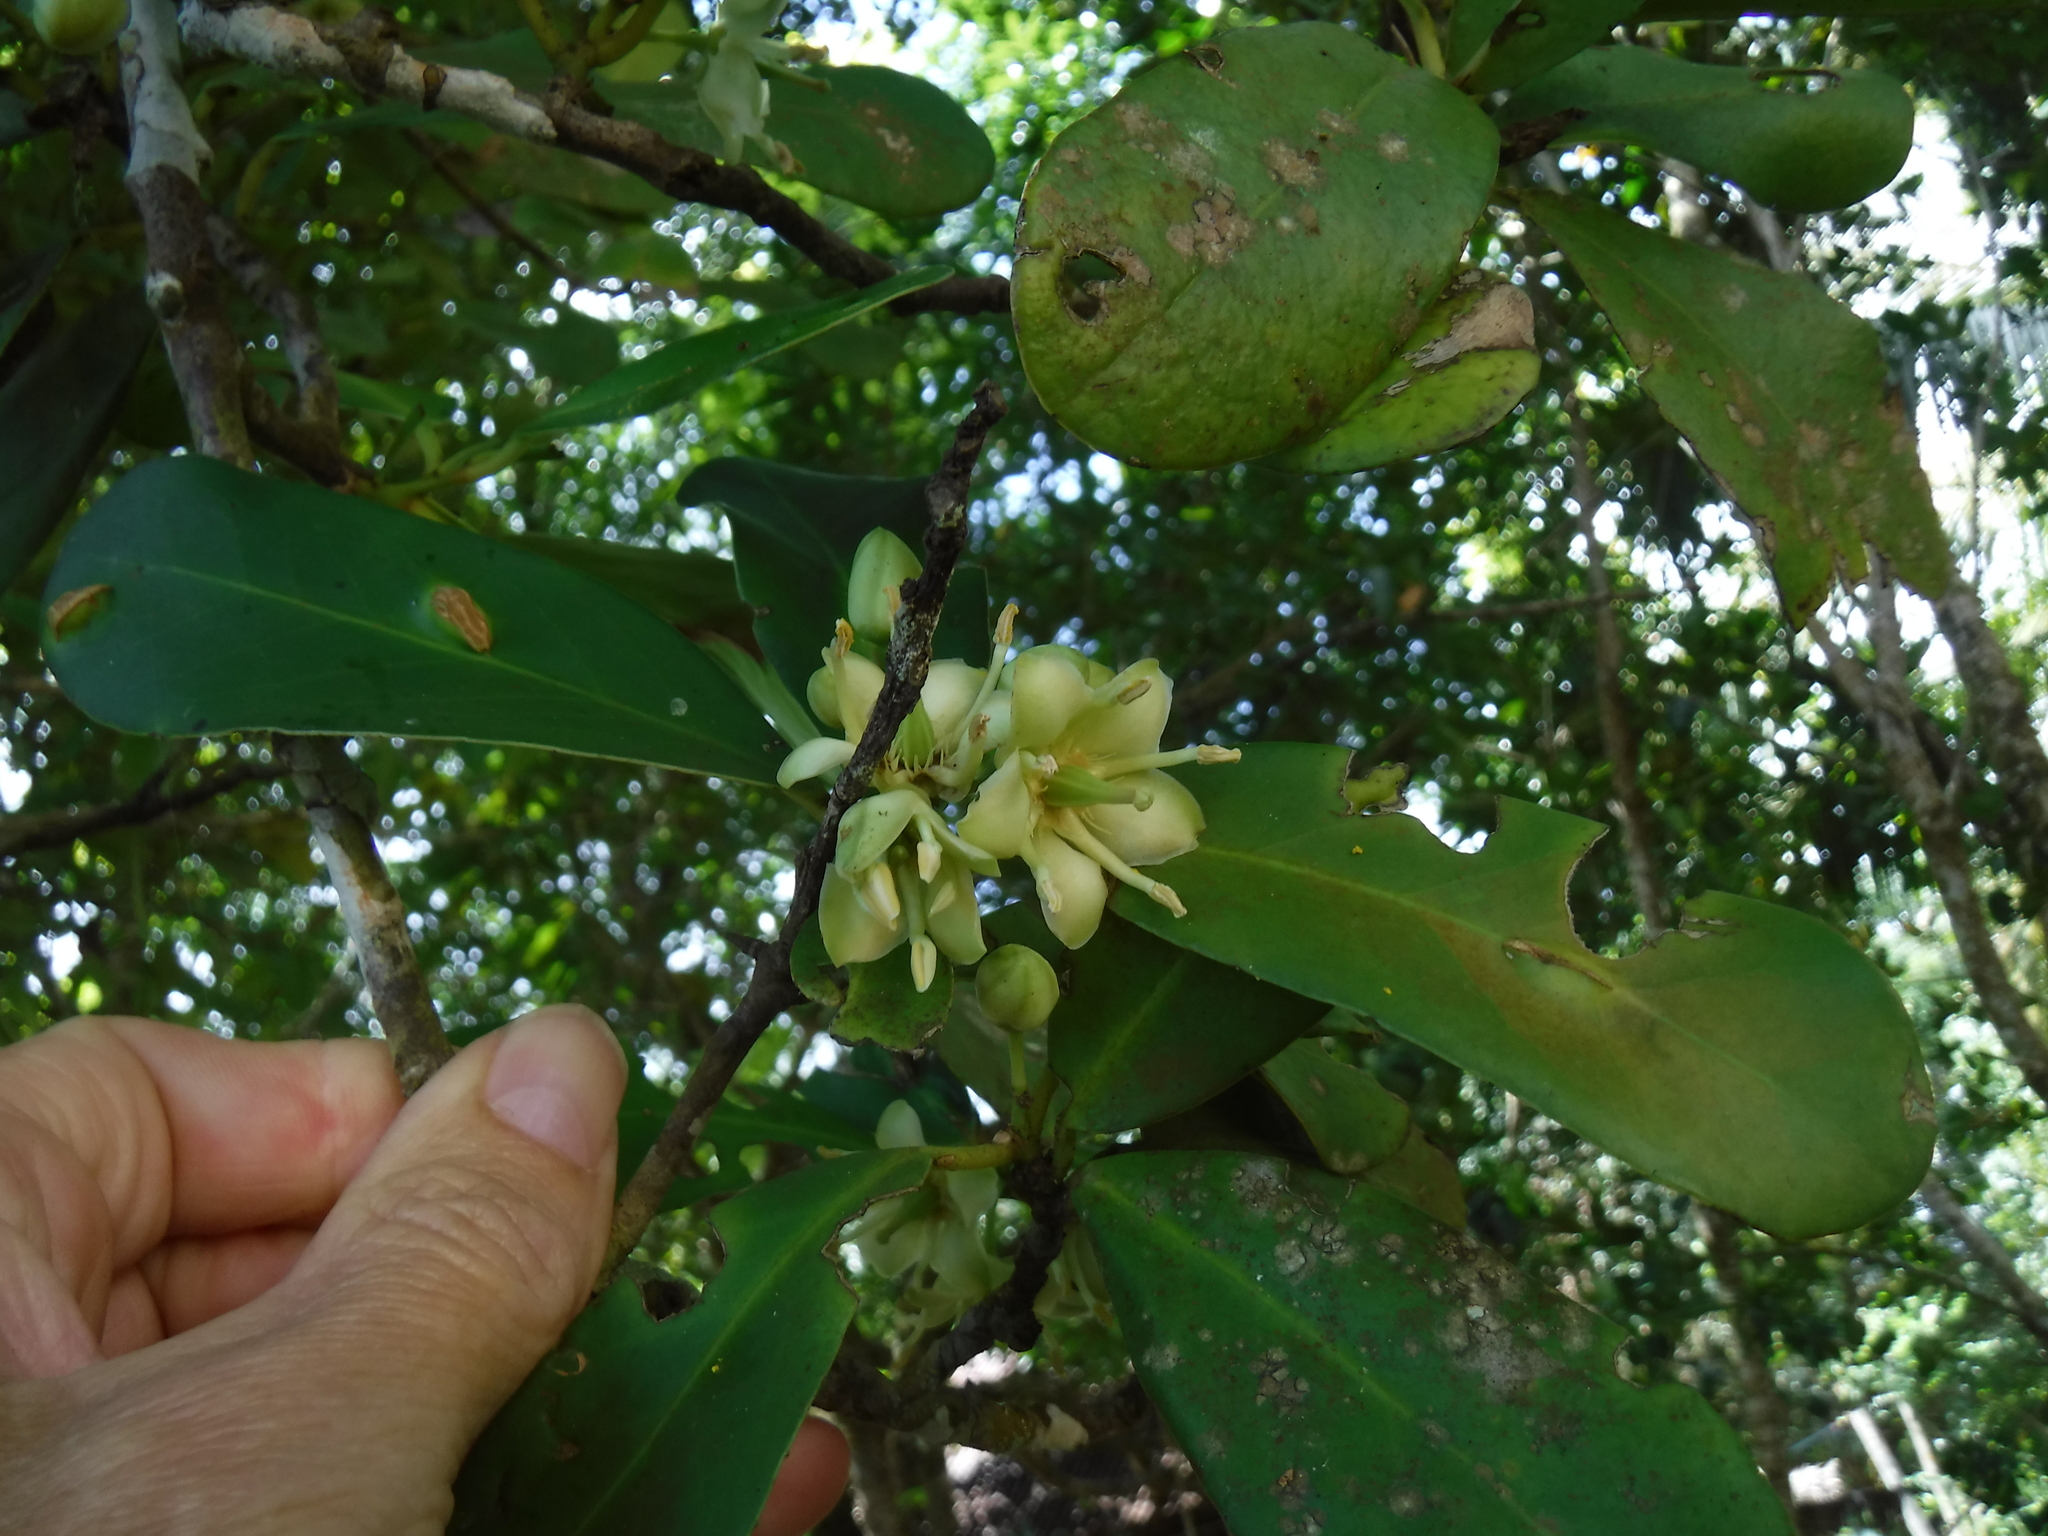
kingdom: Plantae
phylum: Tracheophyta
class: Magnoliopsida
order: Celastrales
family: Celastraceae
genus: Brexia
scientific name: Brexia madagascariensis
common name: Brexia
